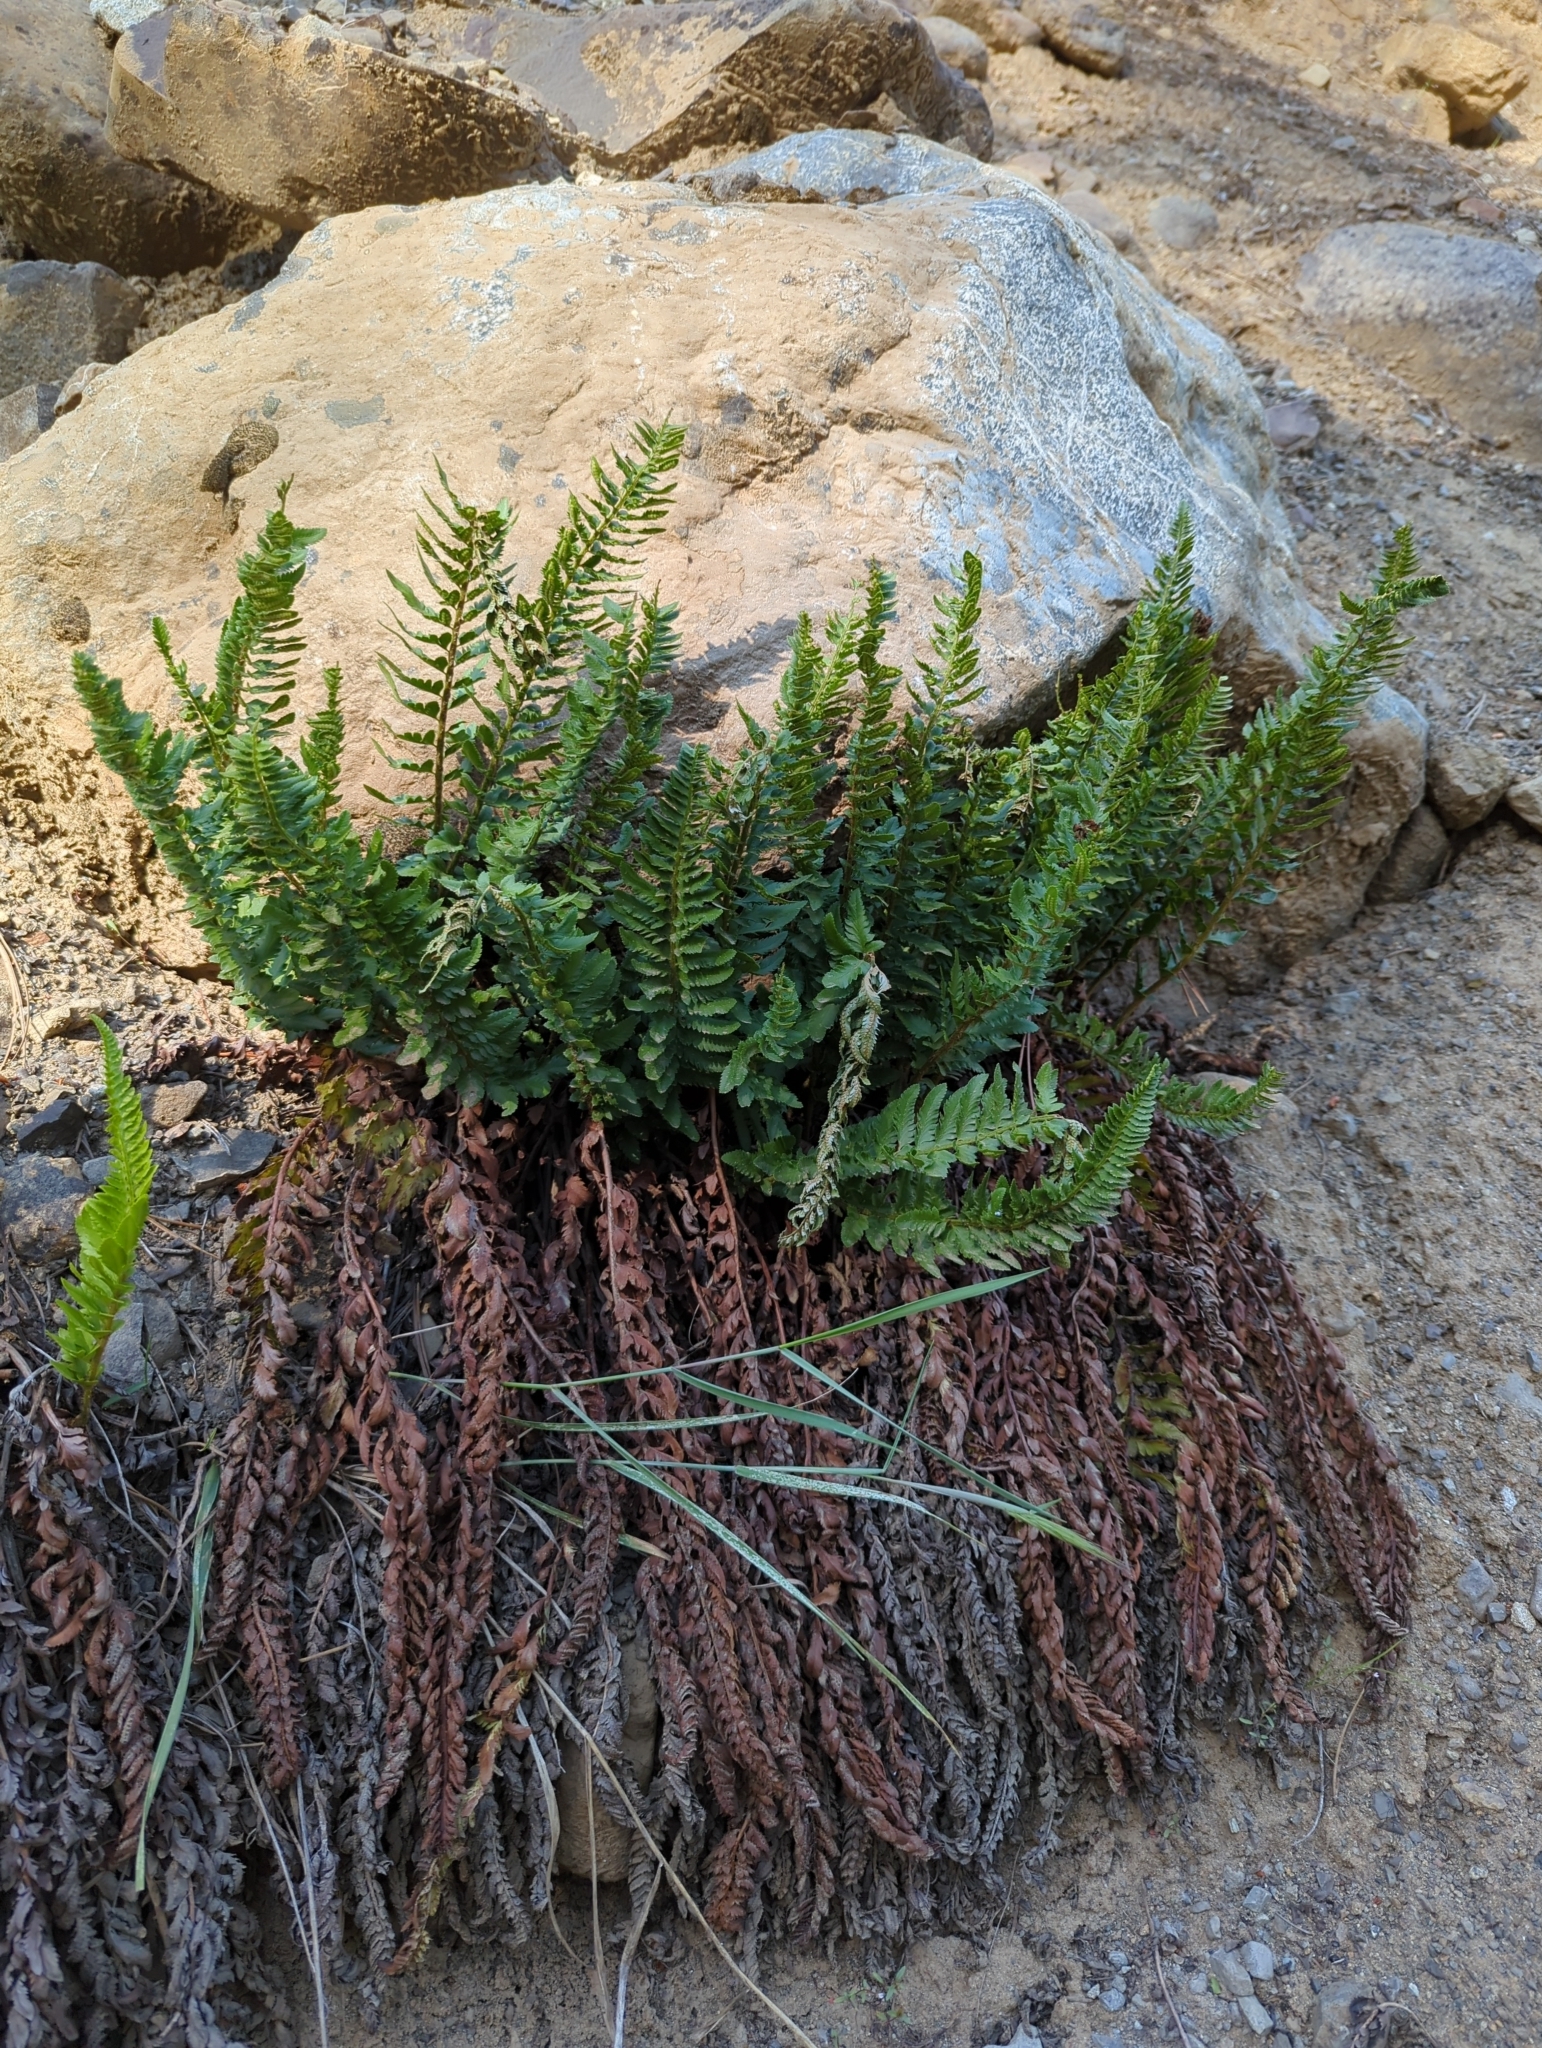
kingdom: Plantae
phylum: Tracheophyta
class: Polypodiopsida
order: Polypodiales
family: Dryopteridaceae
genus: Polystichum
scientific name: Polystichum scopulinum
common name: Eaton's shield fern
